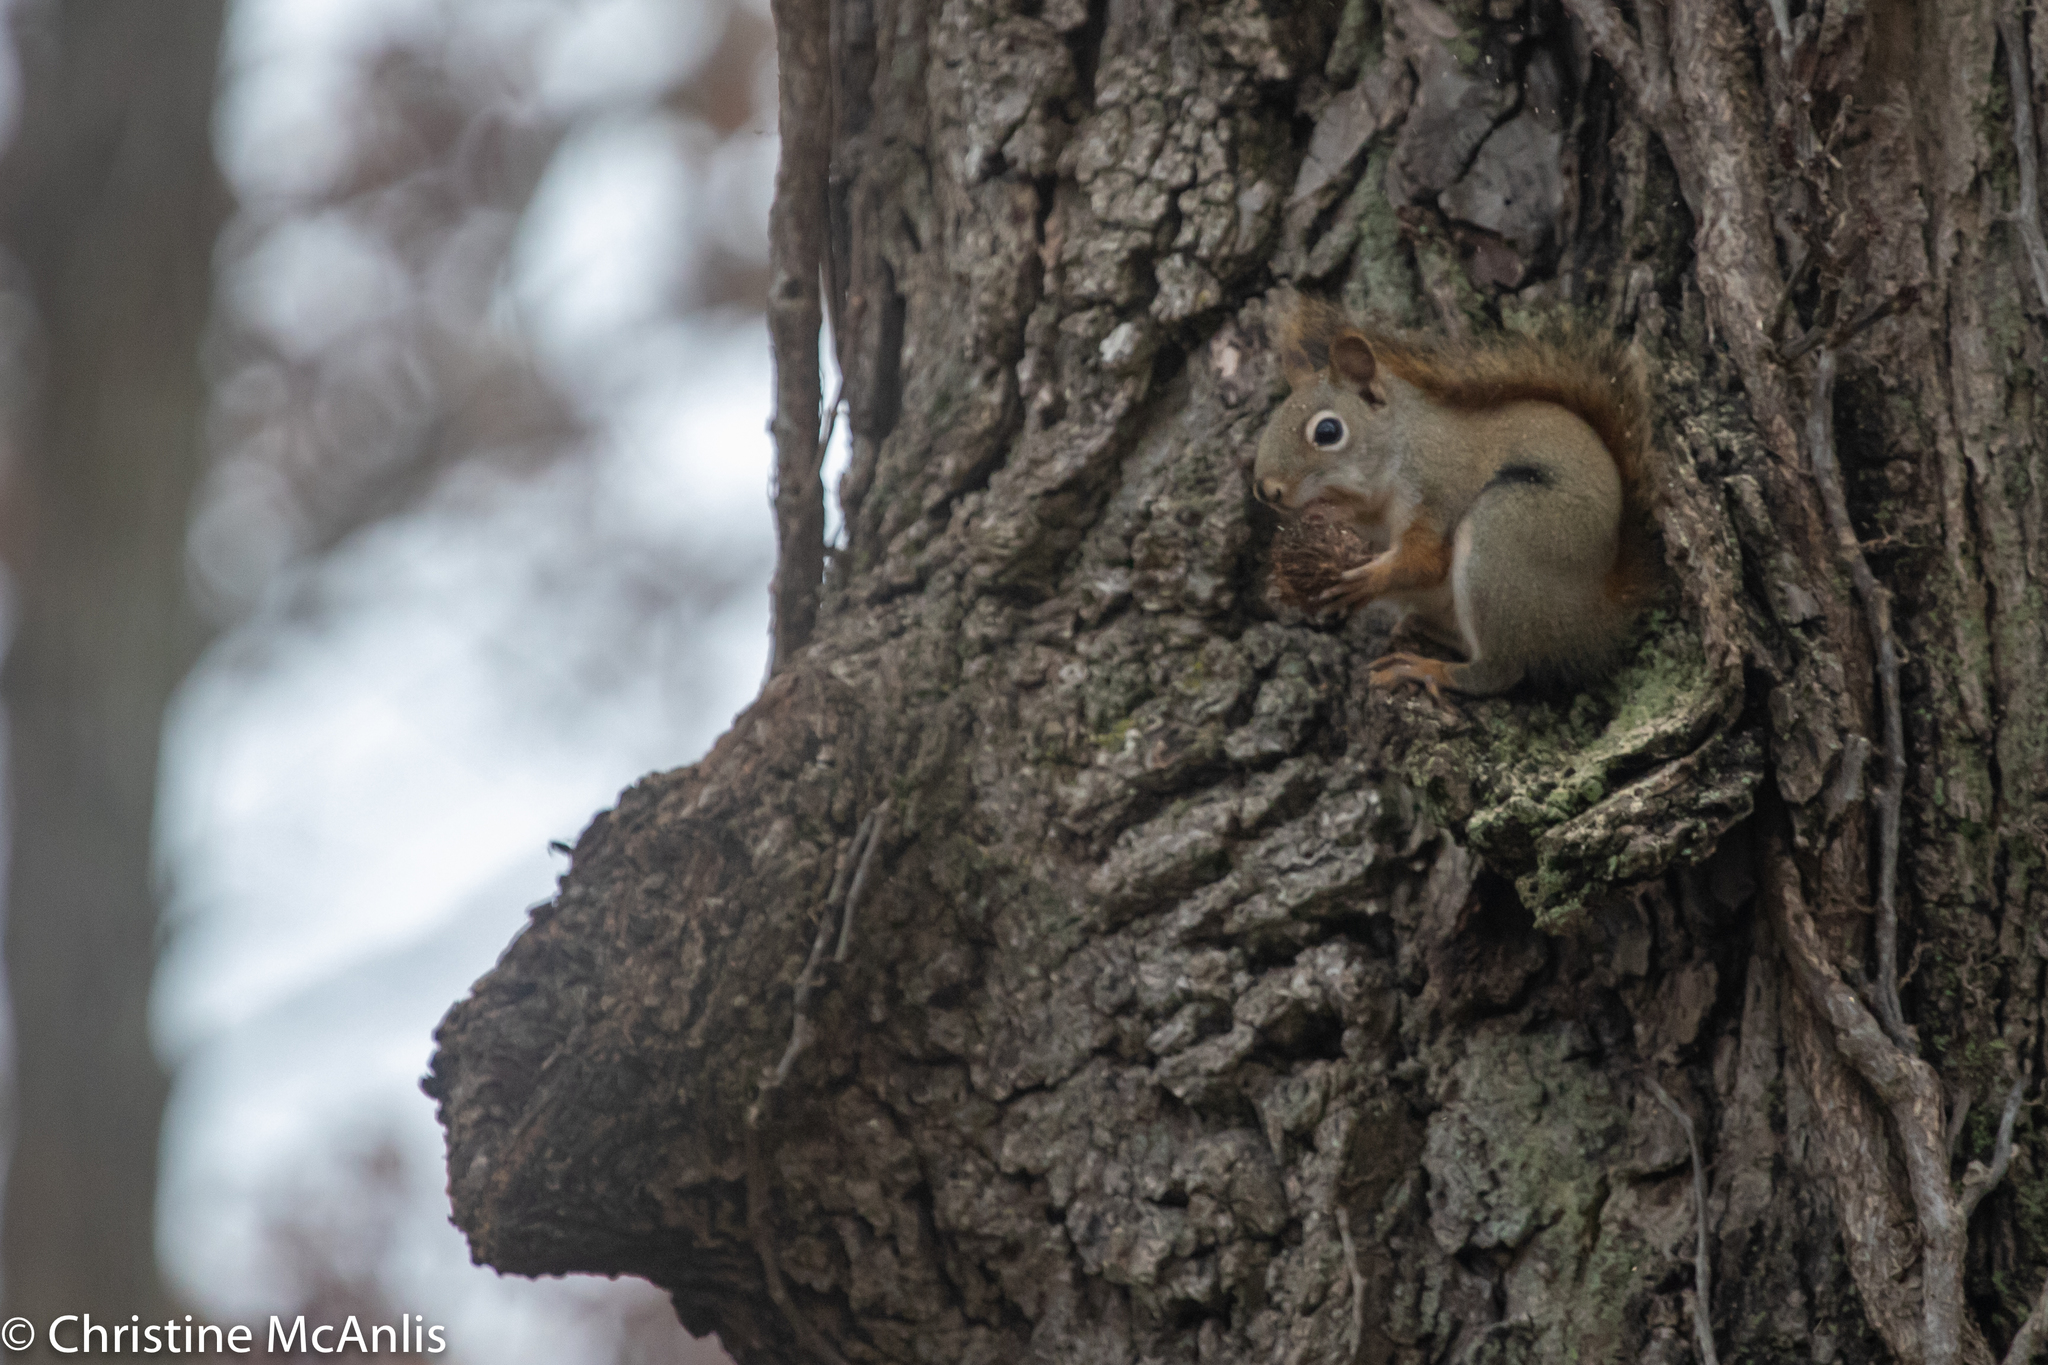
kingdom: Animalia
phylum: Chordata
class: Mammalia
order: Rodentia
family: Sciuridae
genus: Tamiasciurus
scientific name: Tamiasciurus hudsonicus
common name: Red squirrel
